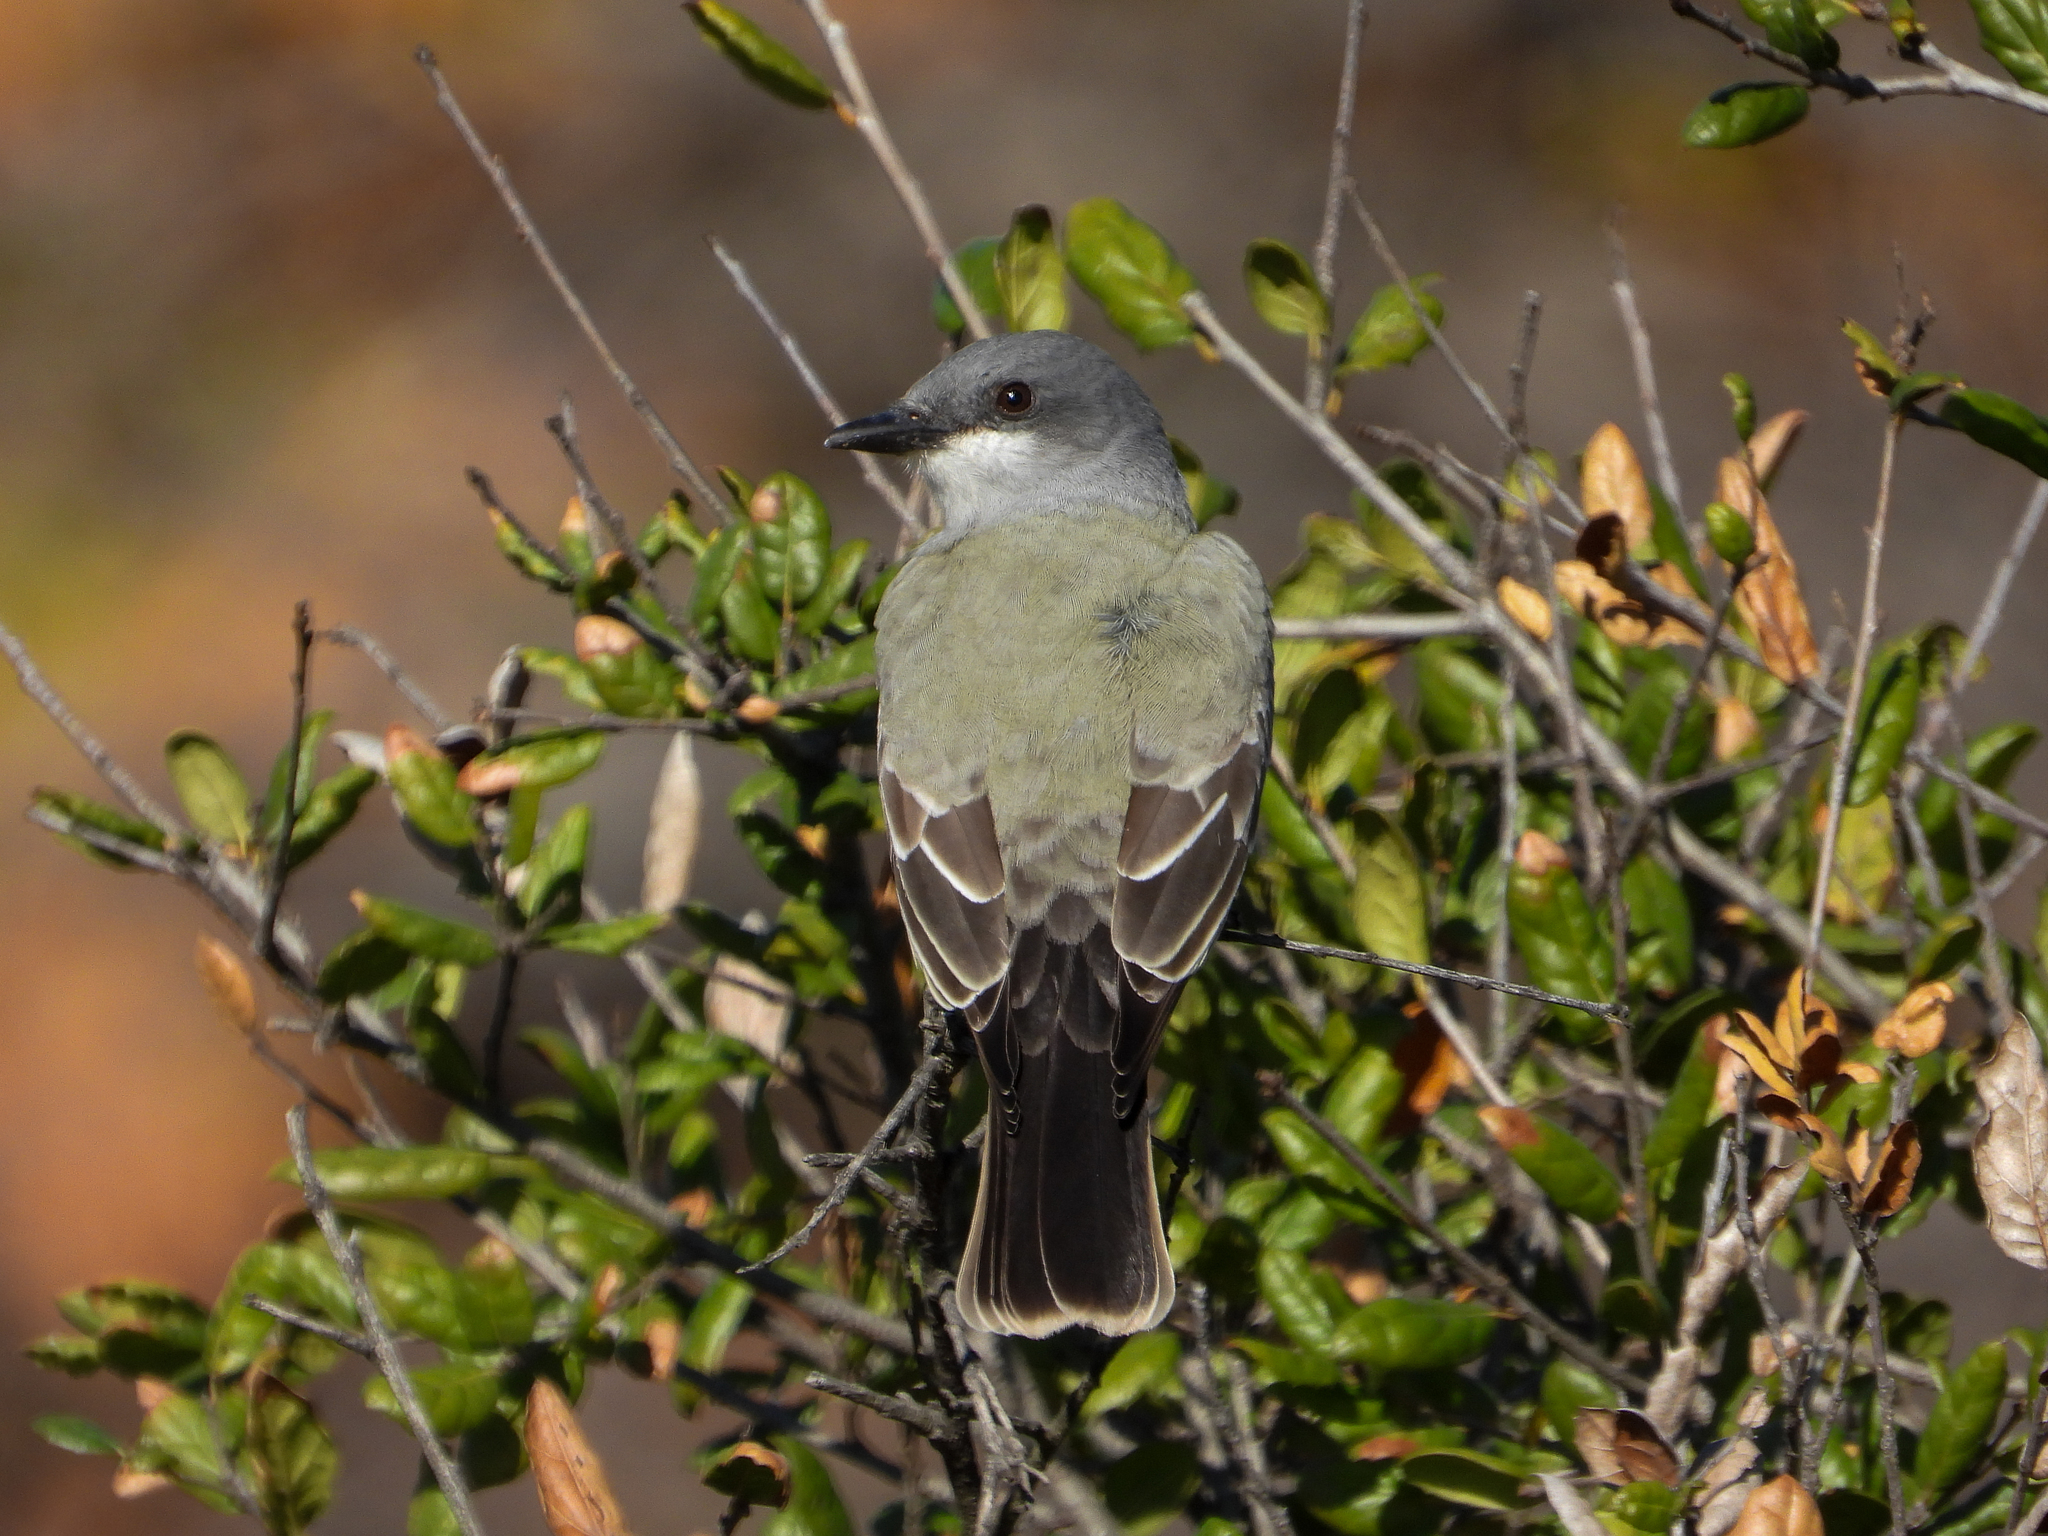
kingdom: Animalia
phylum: Chordata
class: Aves
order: Passeriformes
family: Tyrannidae
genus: Tyrannus
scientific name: Tyrannus vociferans
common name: Cassin's kingbird
